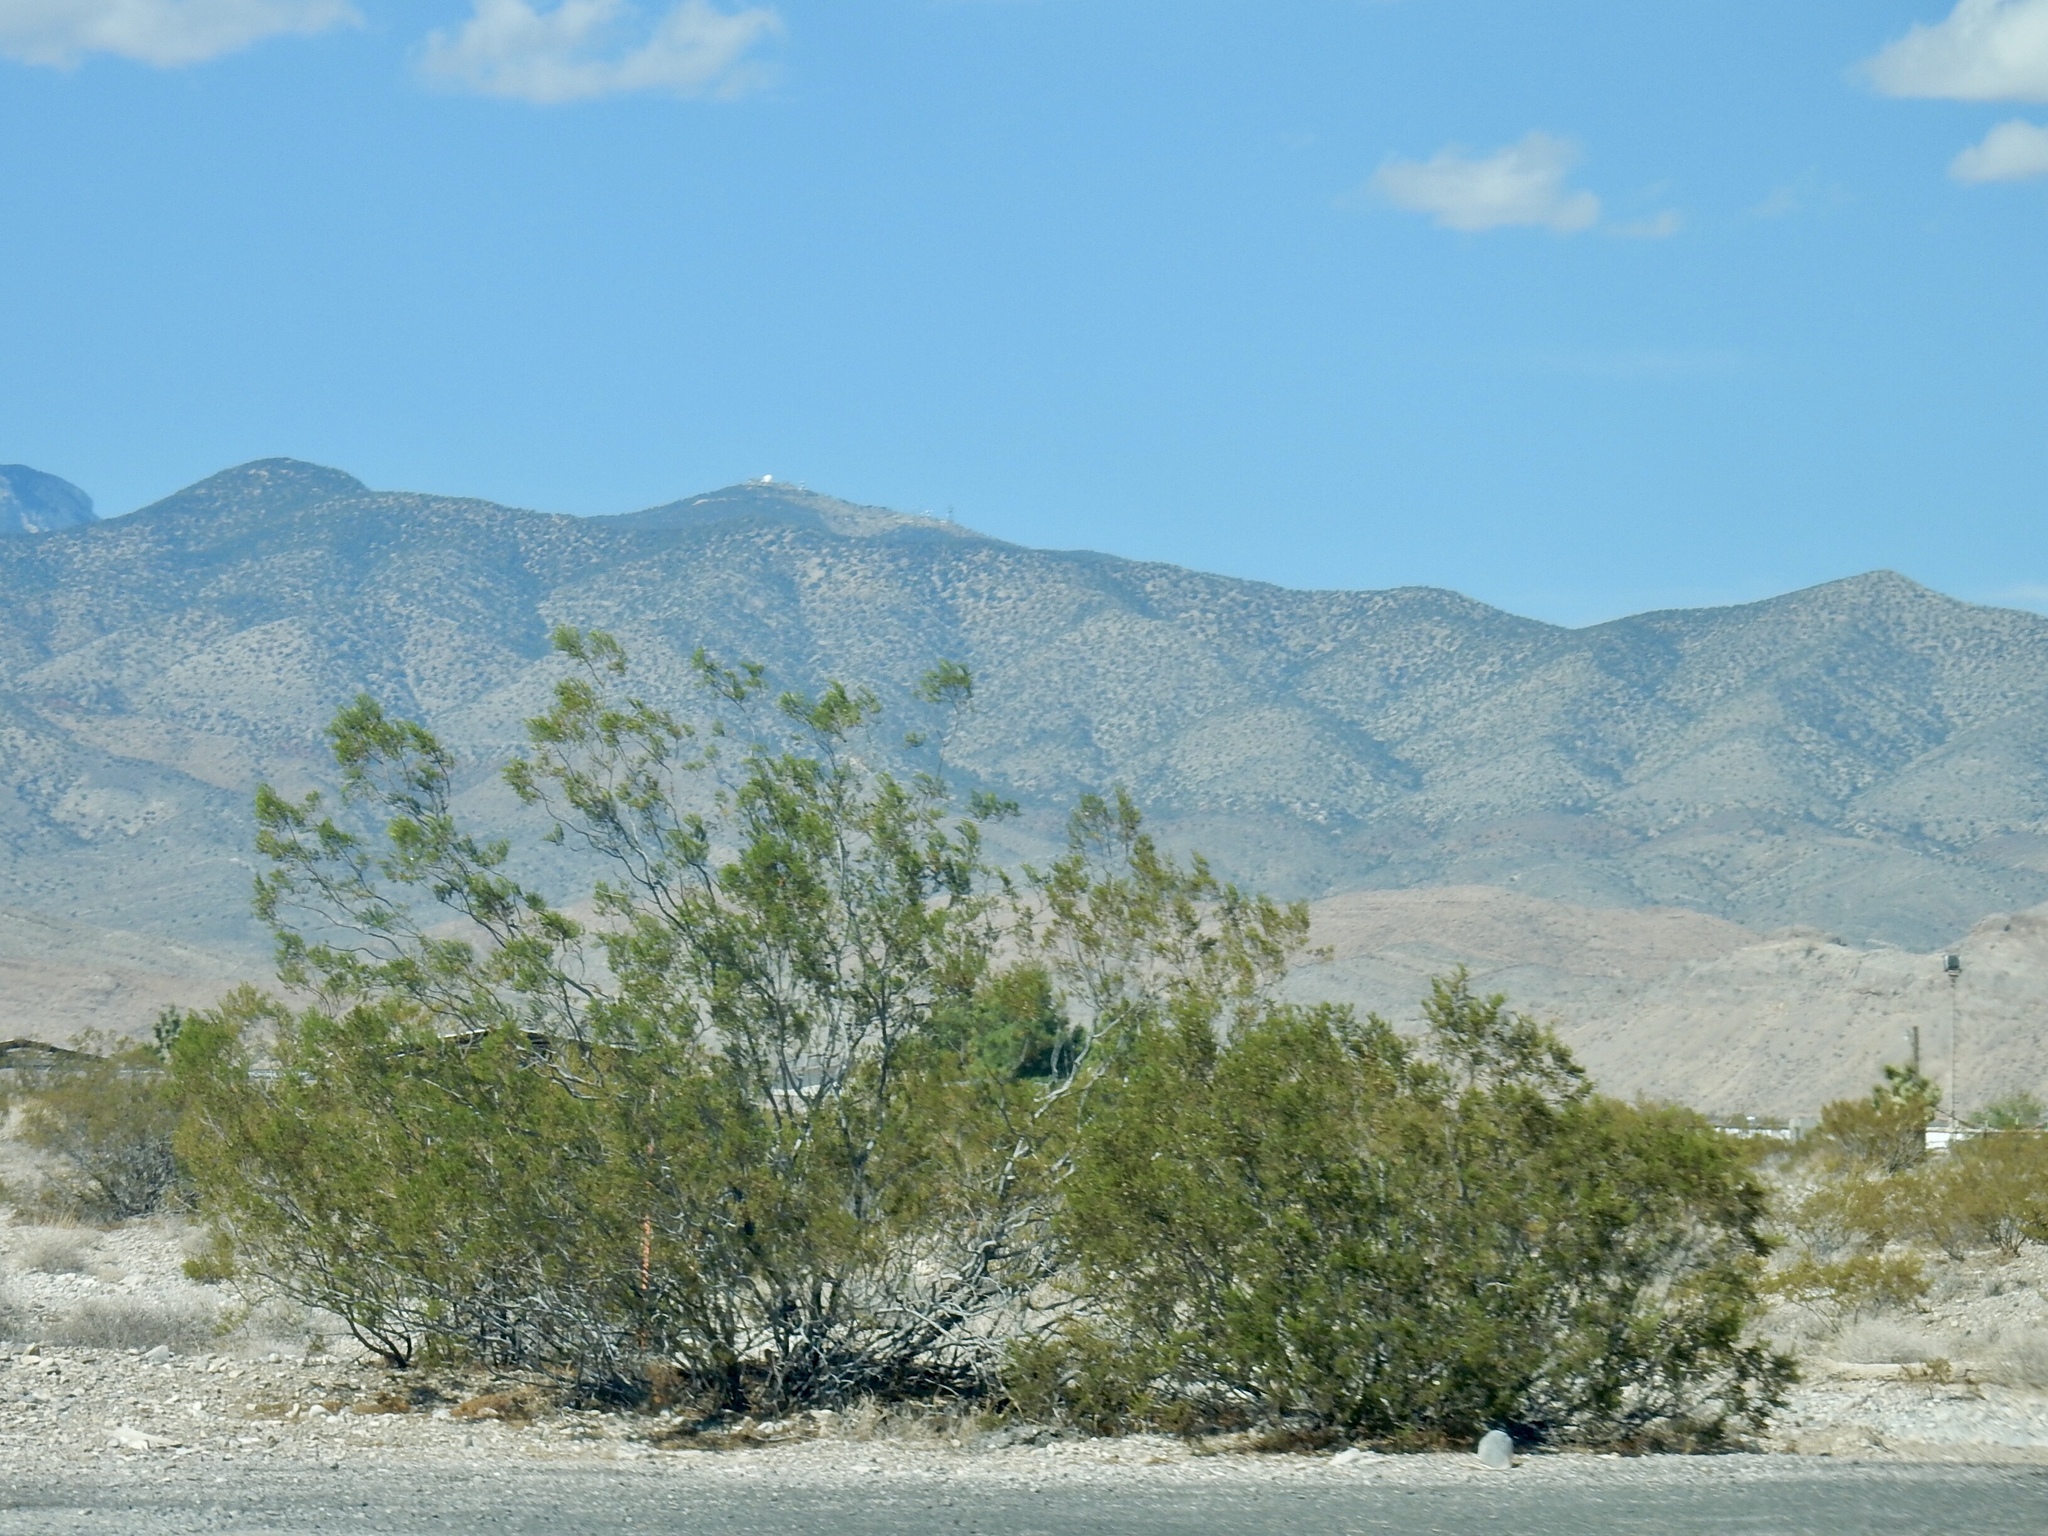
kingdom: Plantae
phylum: Tracheophyta
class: Magnoliopsida
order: Zygophyllales
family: Zygophyllaceae
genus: Larrea
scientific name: Larrea tridentata
